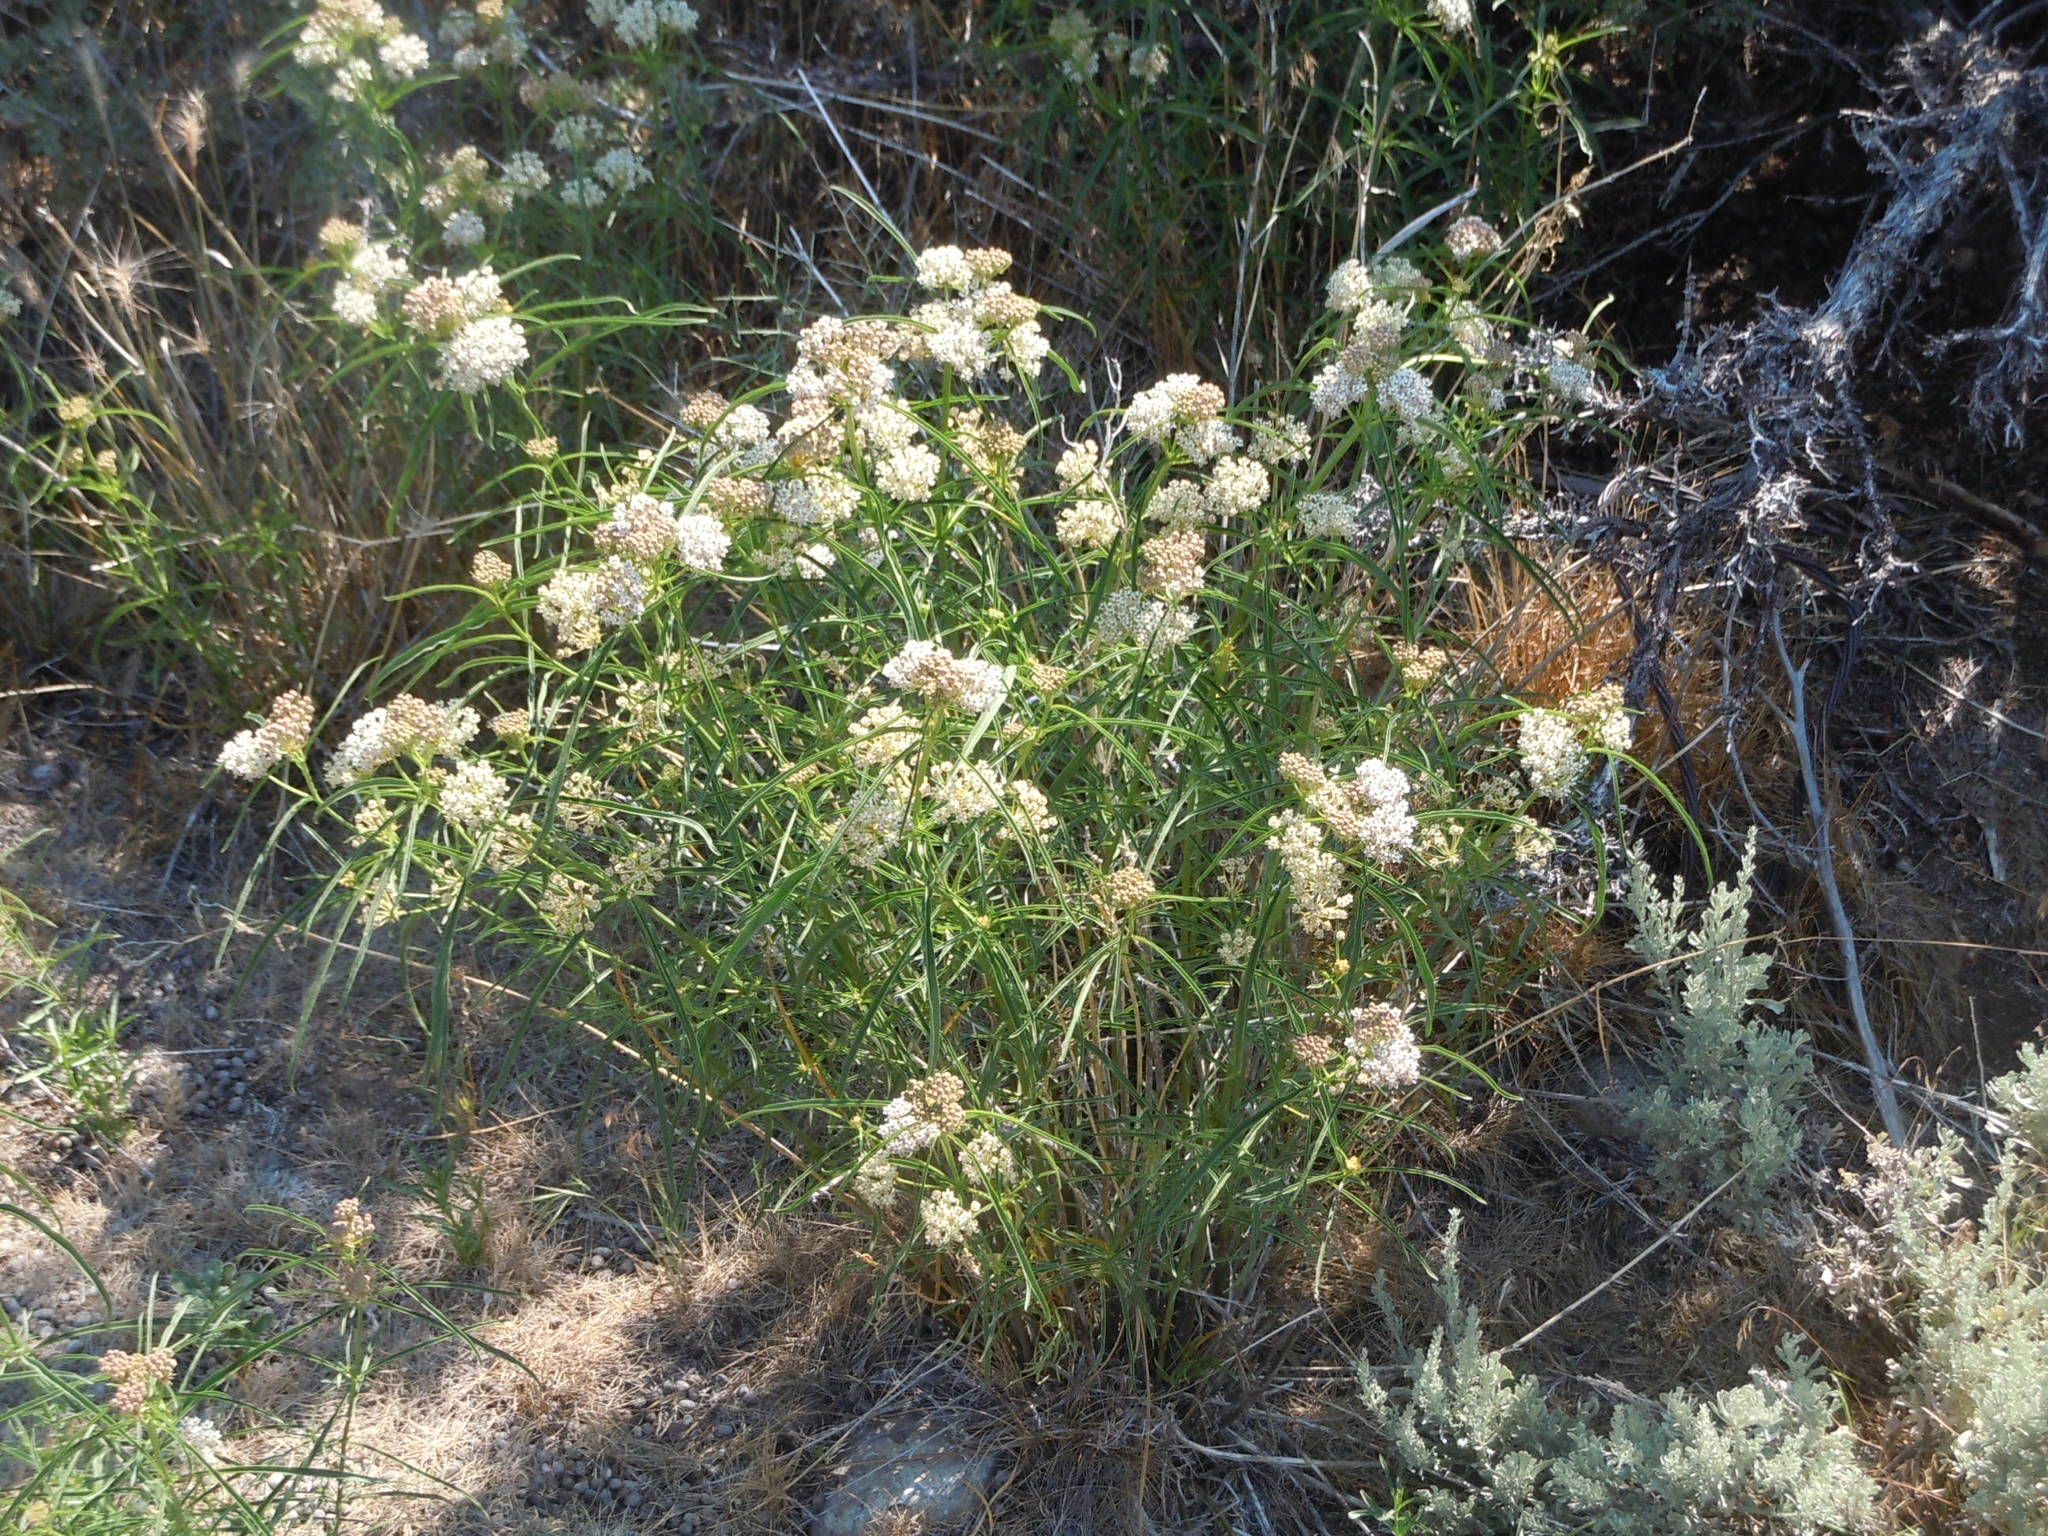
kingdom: Plantae
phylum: Tracheophyta
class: Magnoliopsida
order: Gentianales
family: Apocynaceae
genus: Asclepias
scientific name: Asclepias fascicularis
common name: Mexican milkweed
